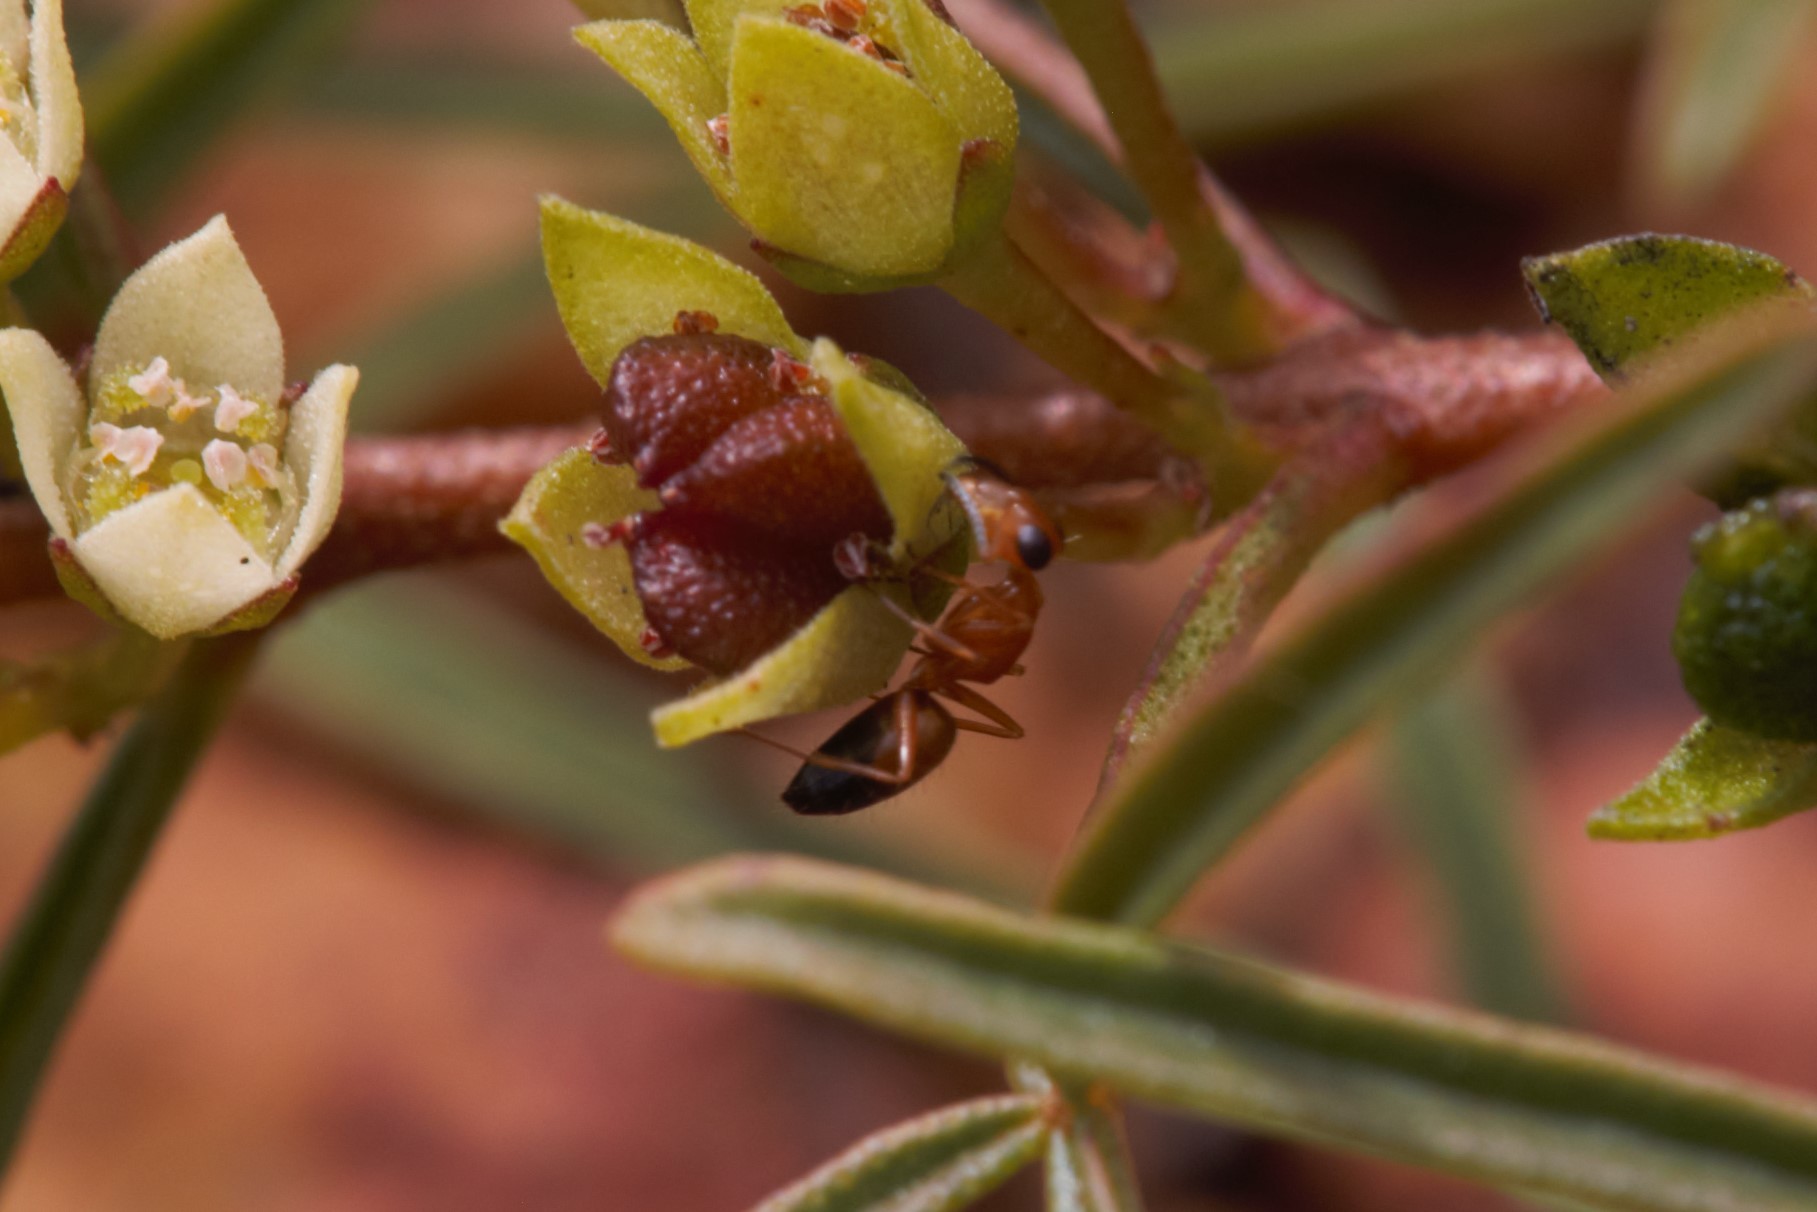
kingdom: Animalia
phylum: Arthropoda
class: Insecta
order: Hymenoptera
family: Formicidae
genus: Opisthopsis
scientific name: Opisthopsis haddoni
